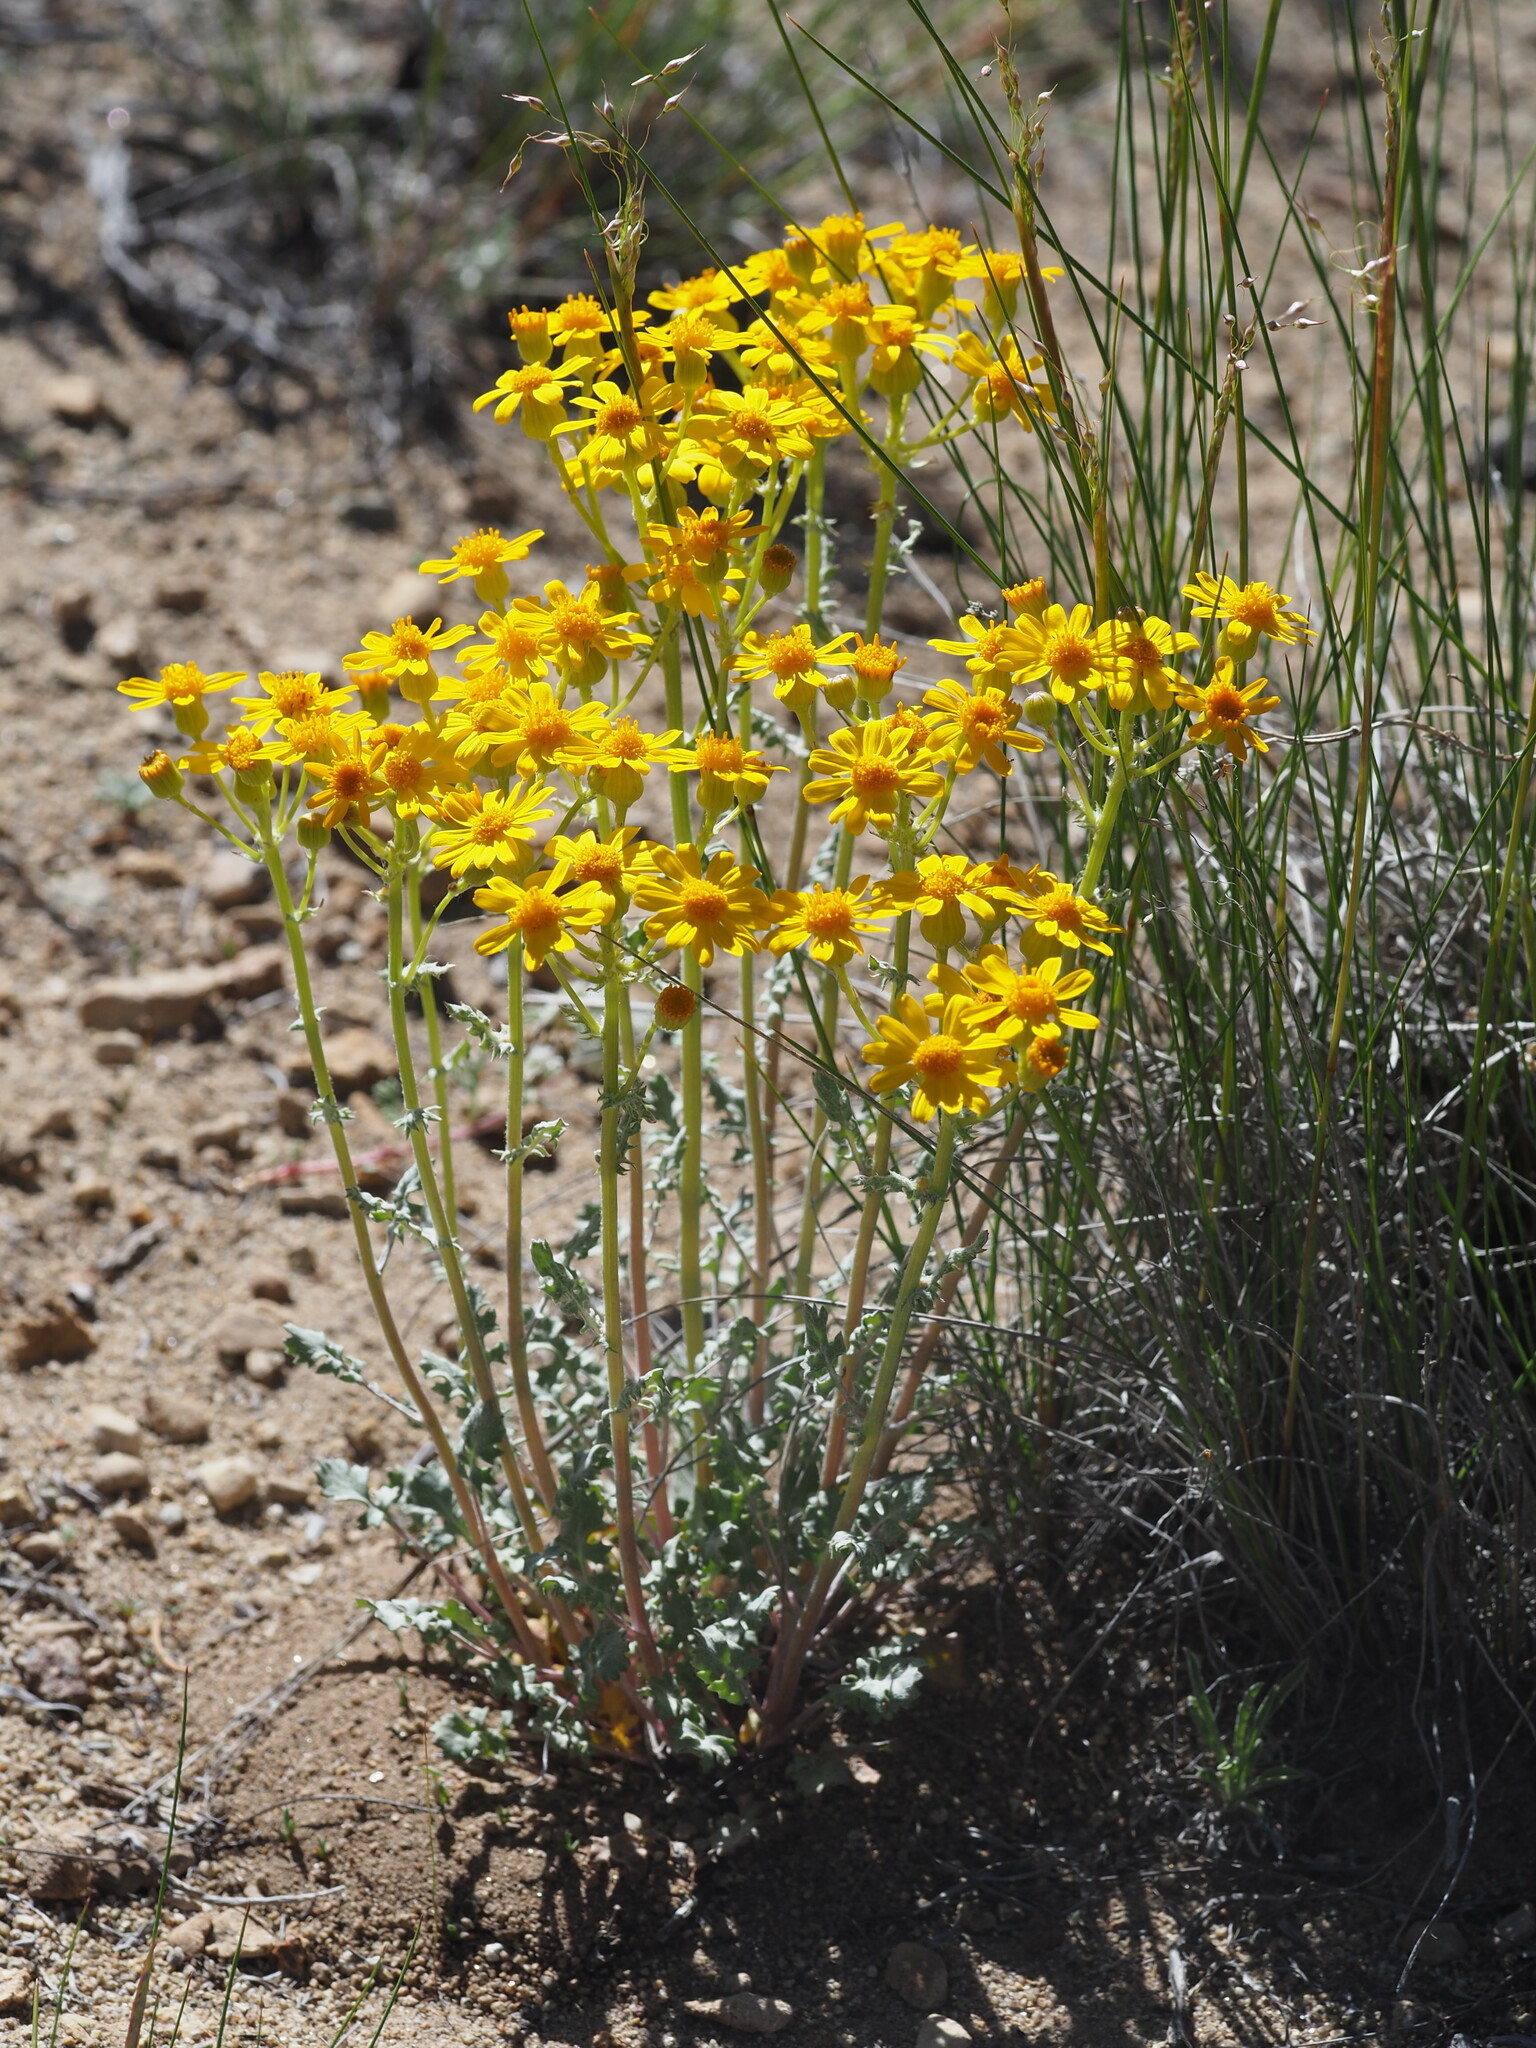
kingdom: Plantae
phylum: Tracheophyta
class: Magnoliopsida
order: Asterales
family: Asteraceae
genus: Packera
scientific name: Packera multilobata
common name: Lobe-leaf groundsel
